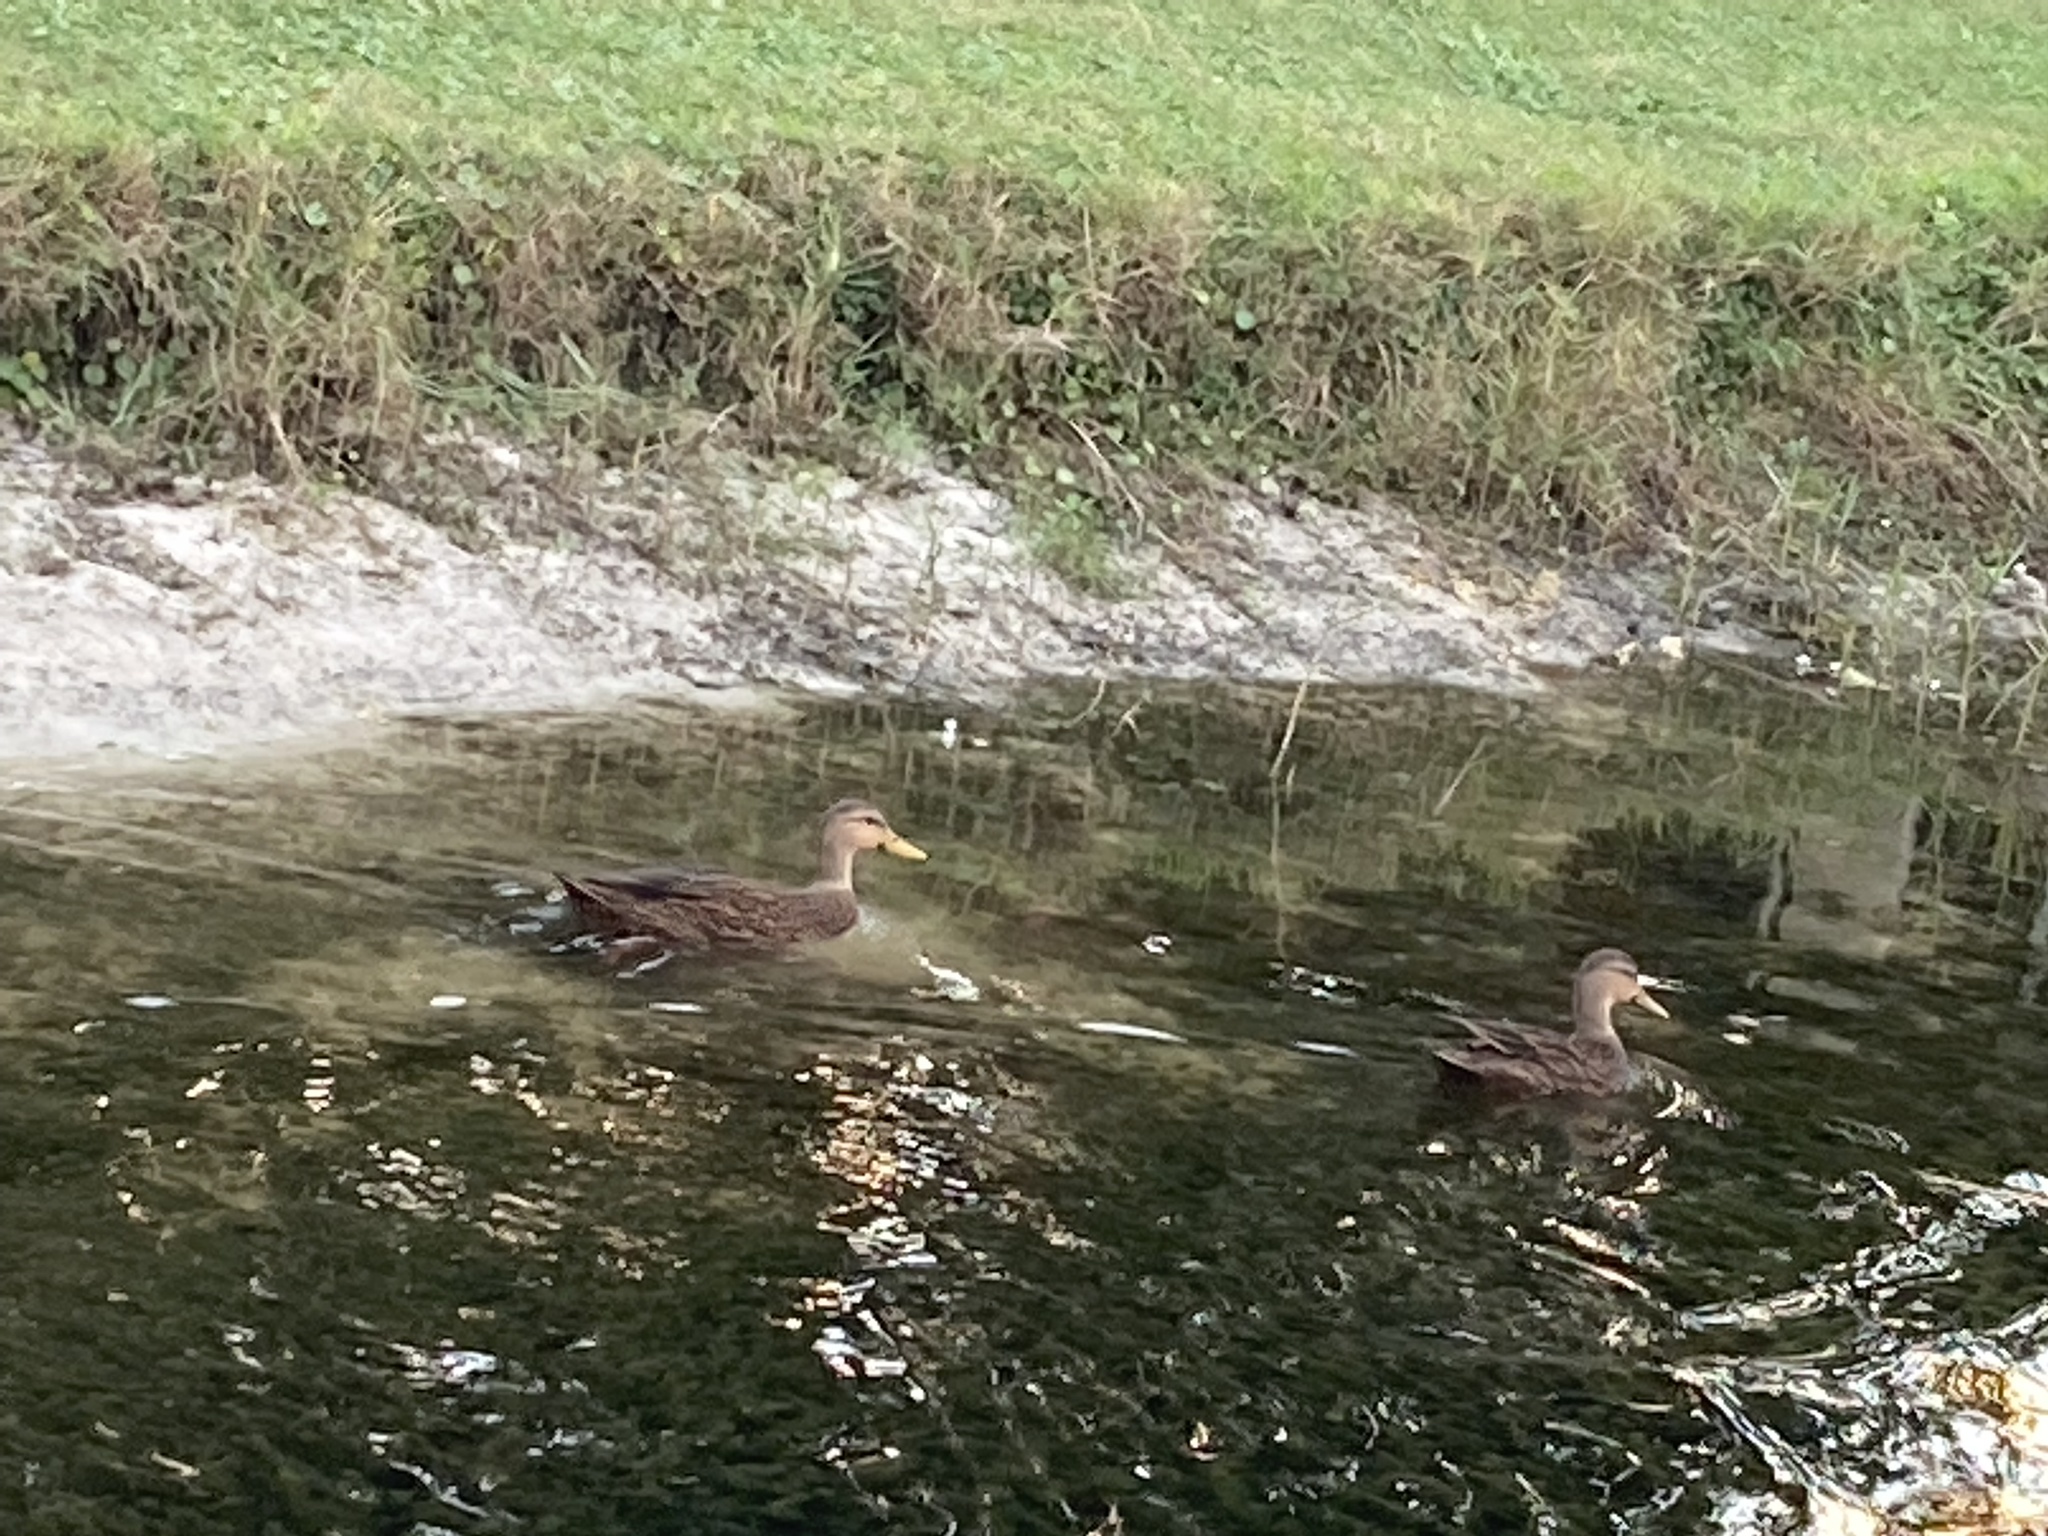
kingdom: Animalia
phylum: Chordata
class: Aves
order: Anseriformes
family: Anatidae
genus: Anas
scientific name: Anas
